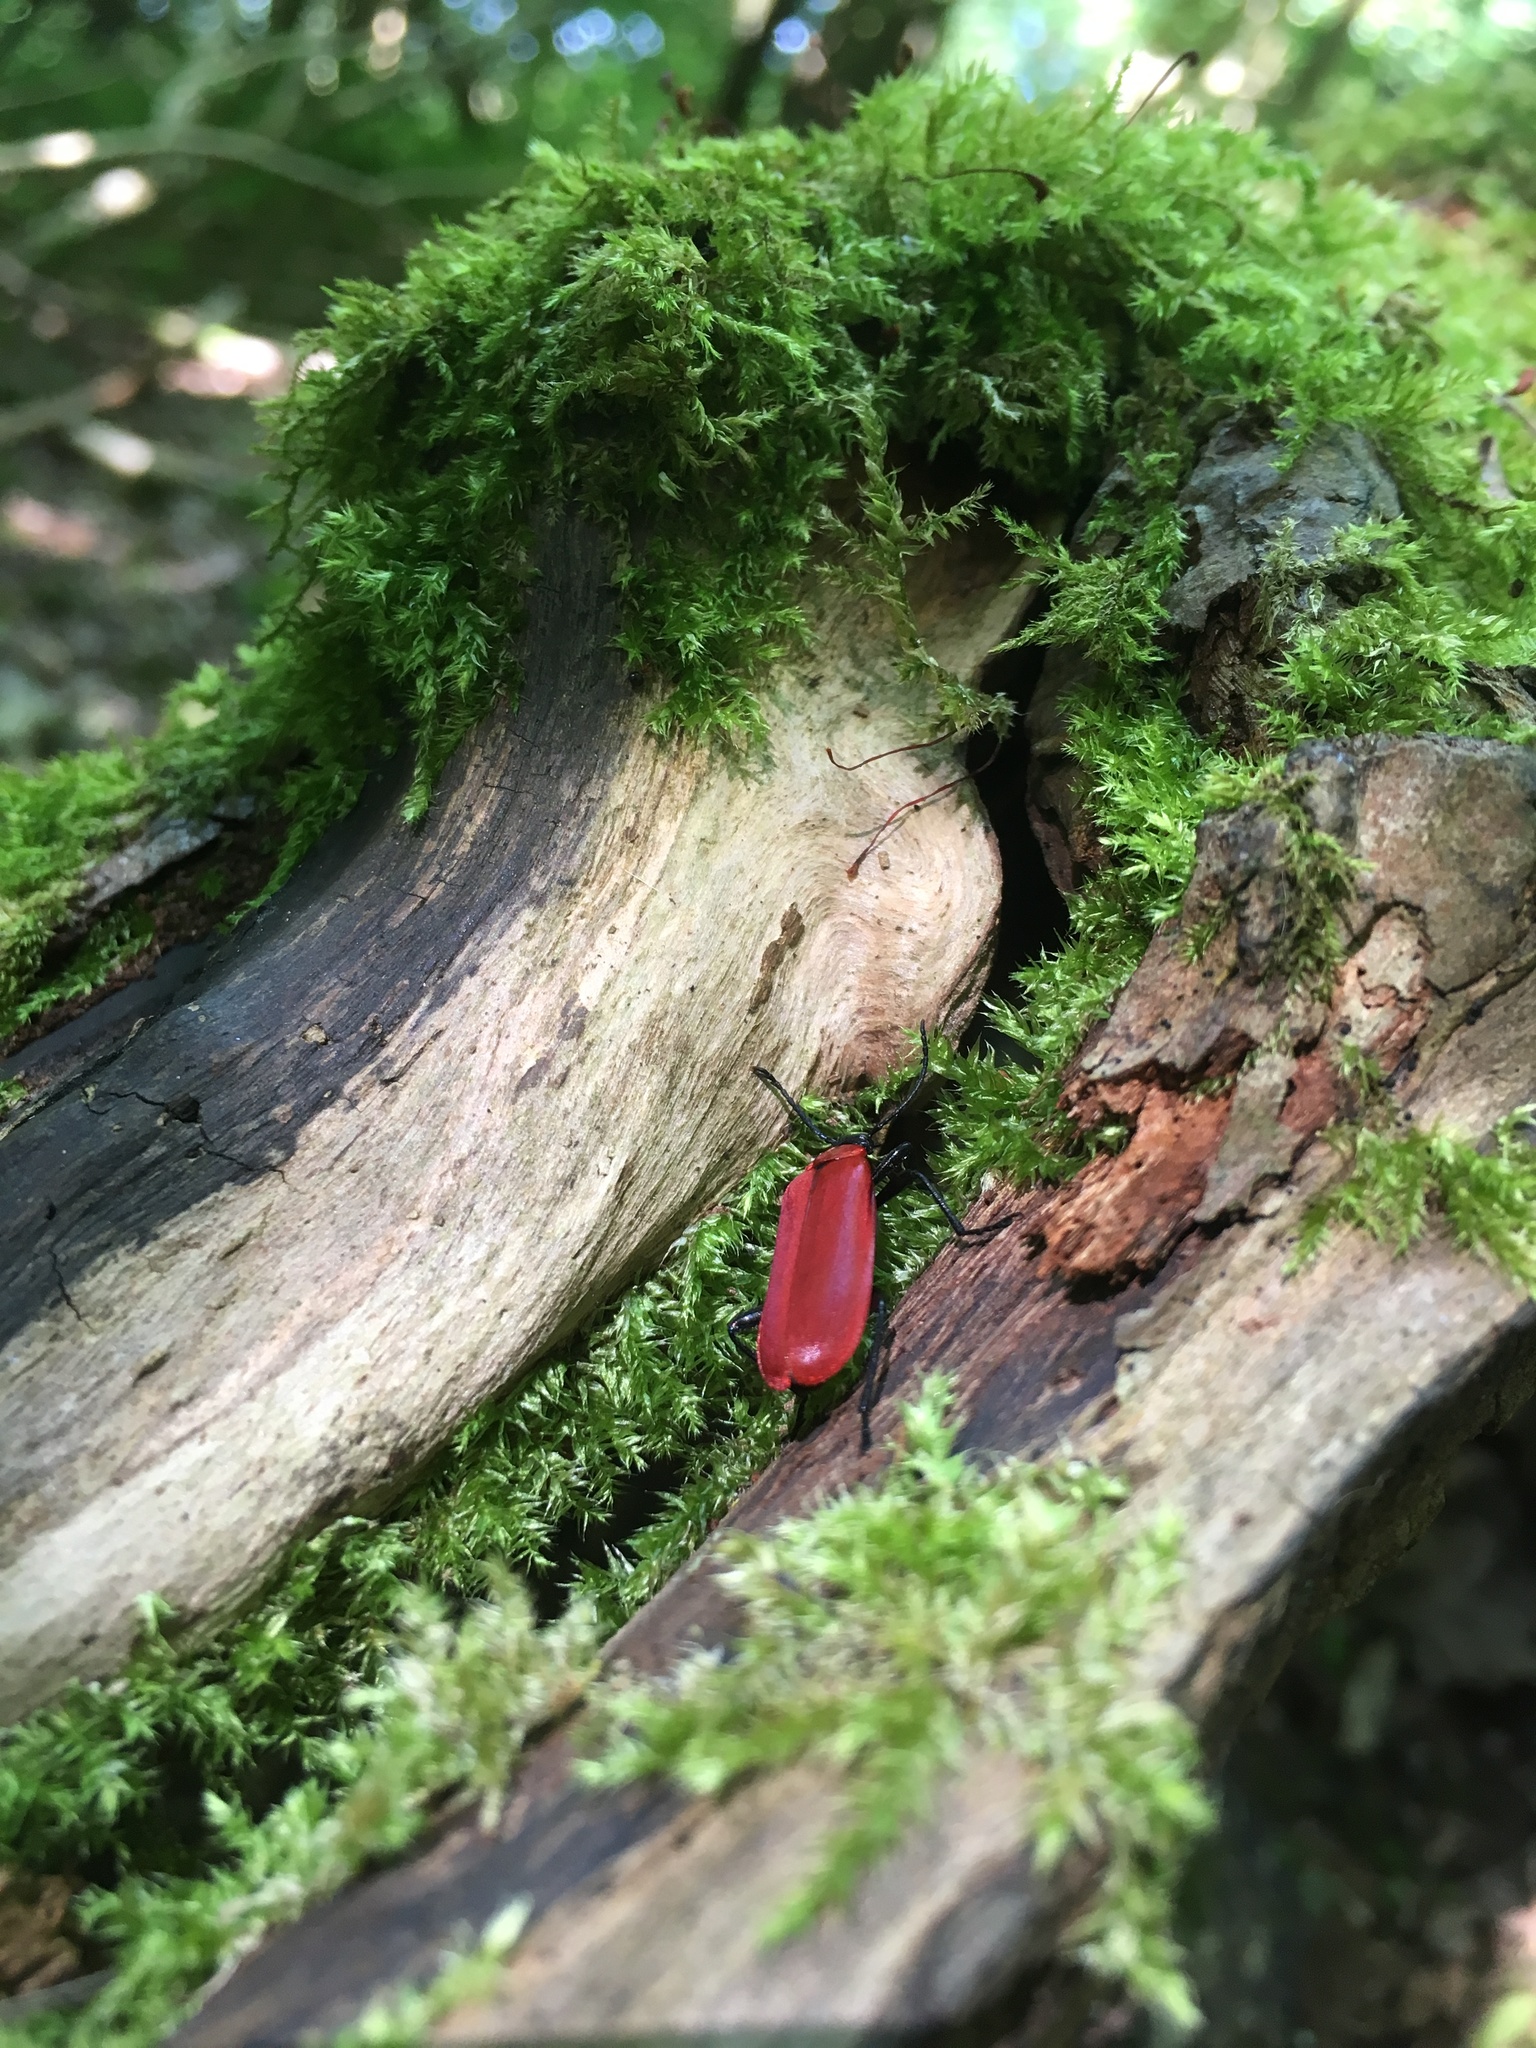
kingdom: Animalia
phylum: Arthropoda
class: Insecta
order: Coleoptera
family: Pyrochroidae
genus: Pyrochroa
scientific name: Pyrochroa coccinea
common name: Black-headed cardinal beetle
